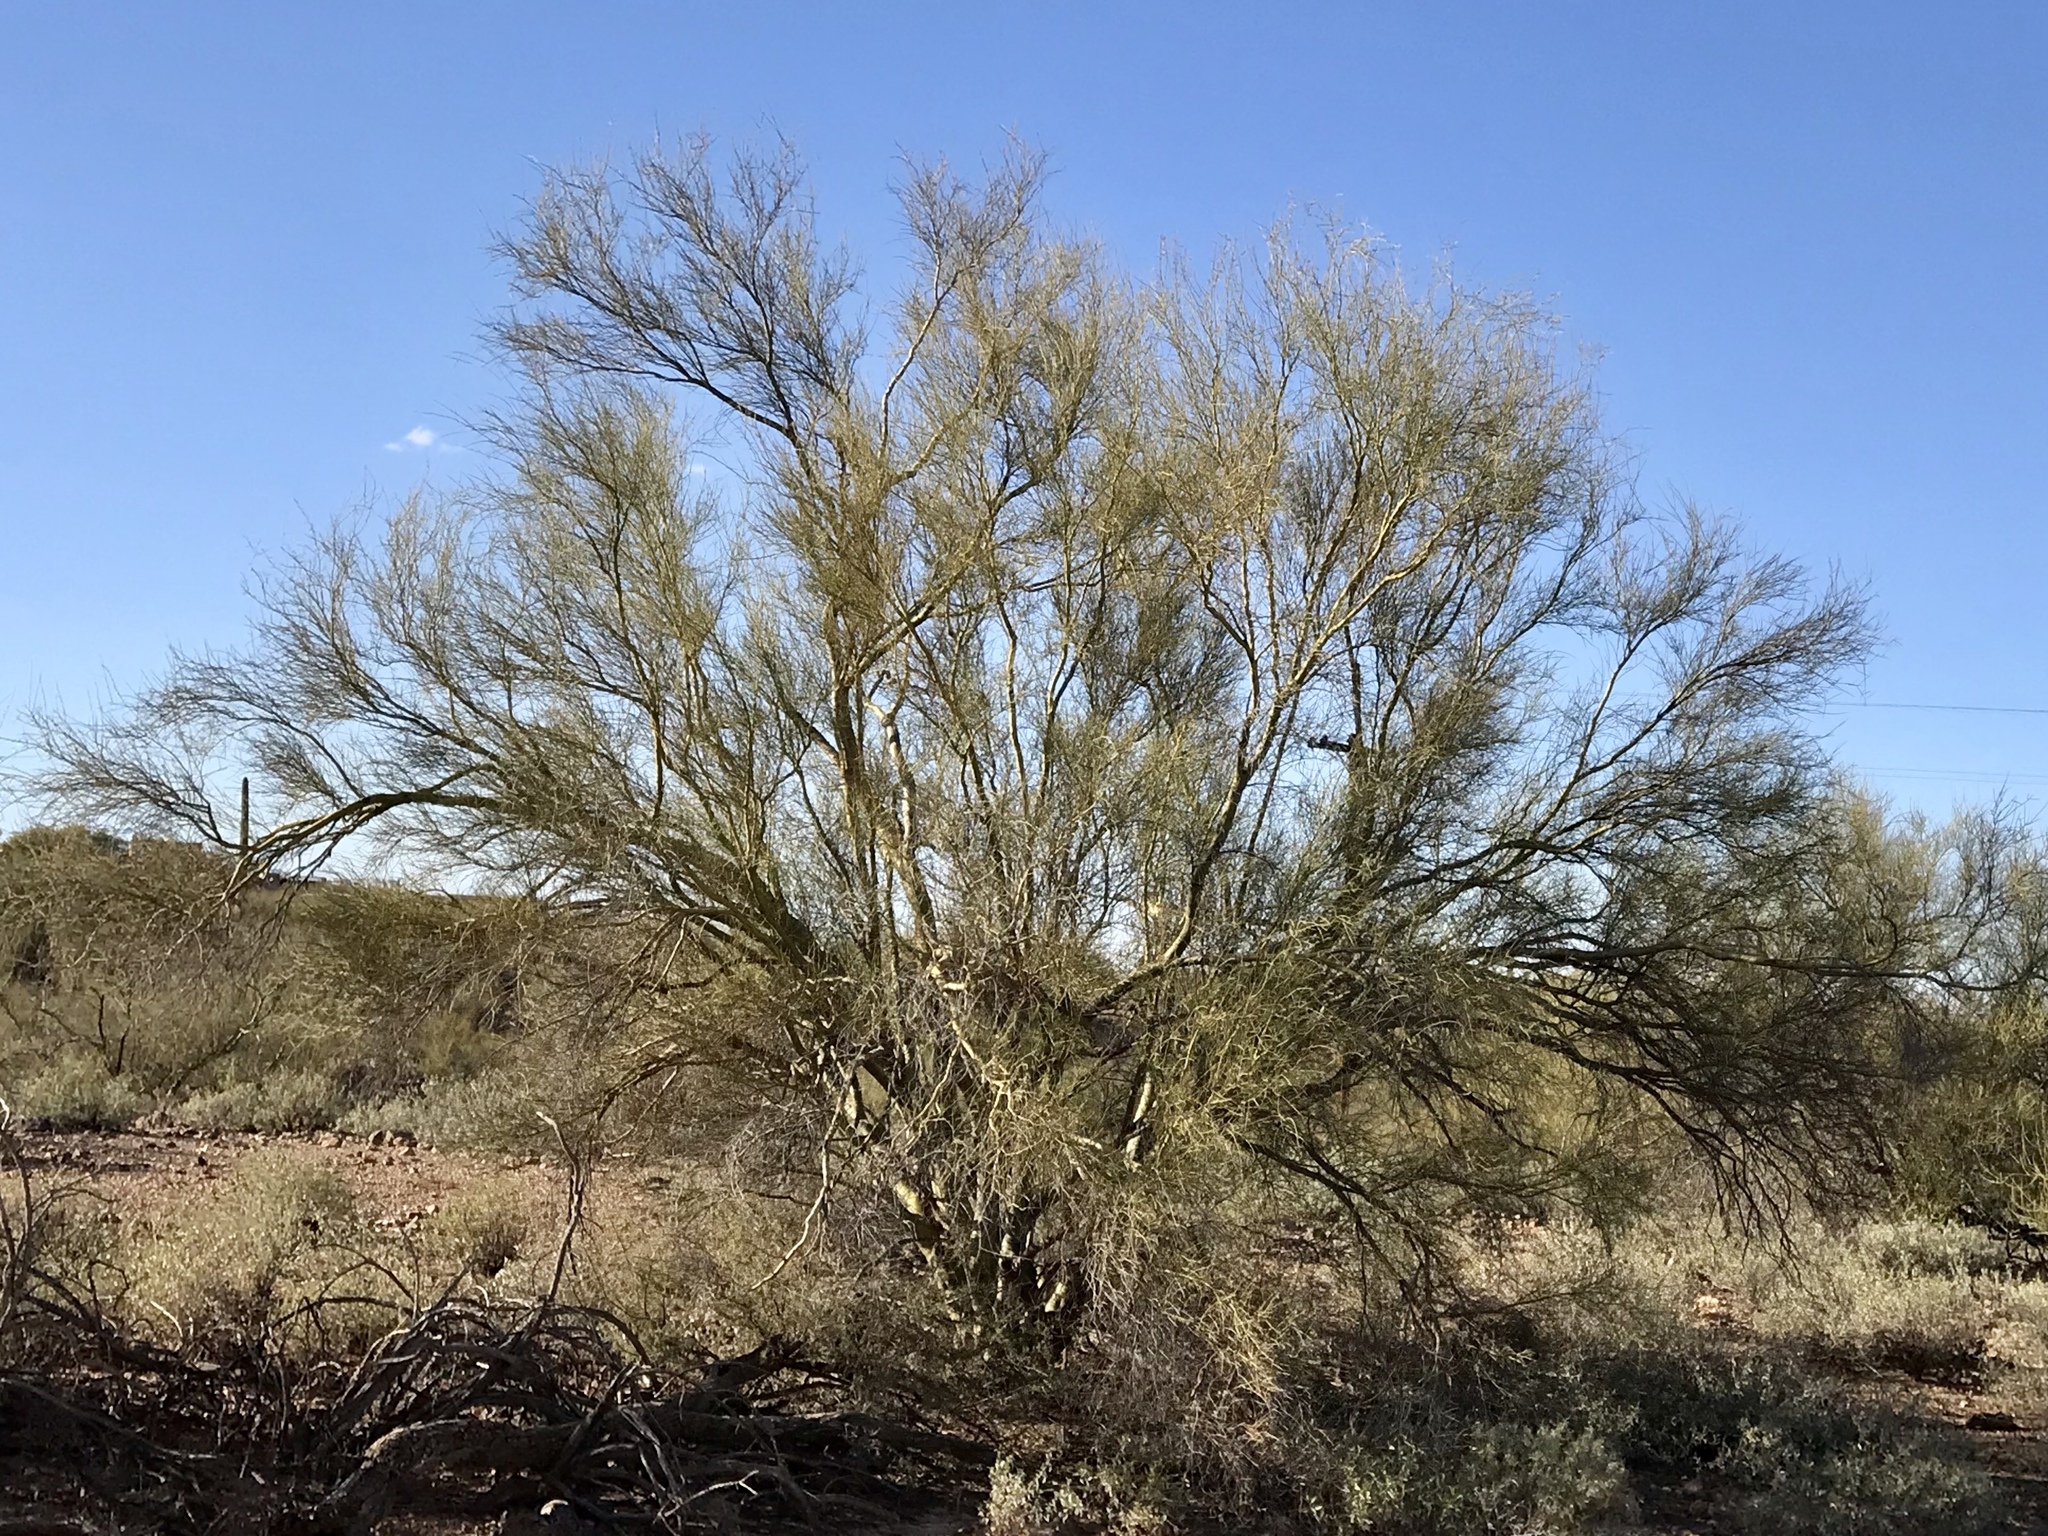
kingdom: Plantae
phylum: Tracheophyta
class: Magnoliopsida
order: Fabales
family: Fabaceae
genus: Parkinsonia
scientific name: Parkinsonia microphylla
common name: Yellow paloverde
